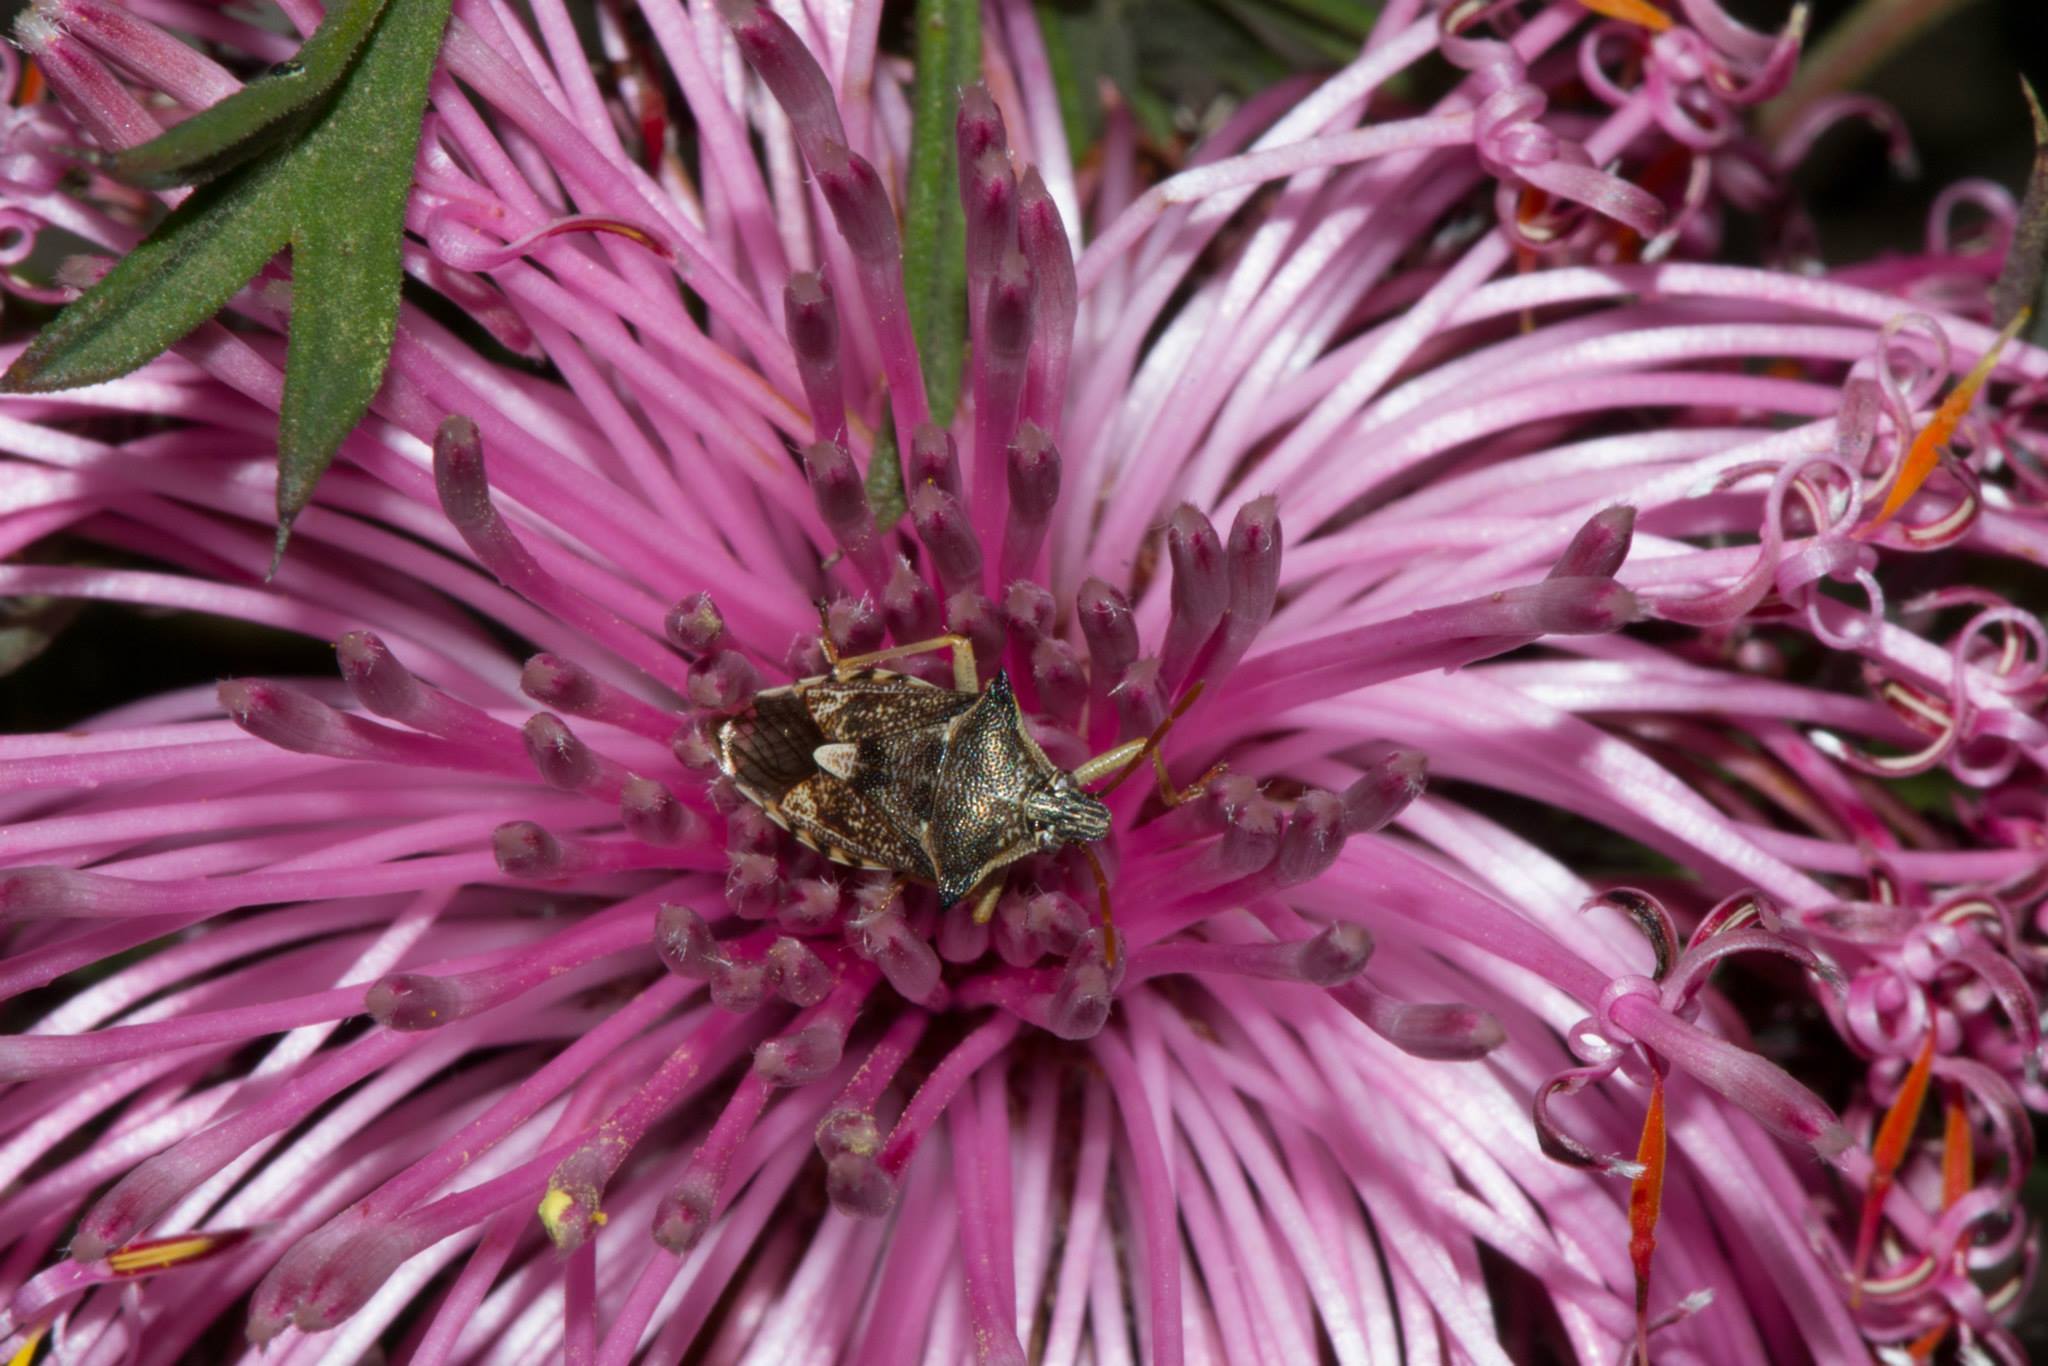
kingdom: Plantae
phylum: Tracheophyta
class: Magnoliopsida
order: Proteales
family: Proteaceae
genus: Isopogon
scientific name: Isopogon dubius
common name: Pincushion-coneflower
